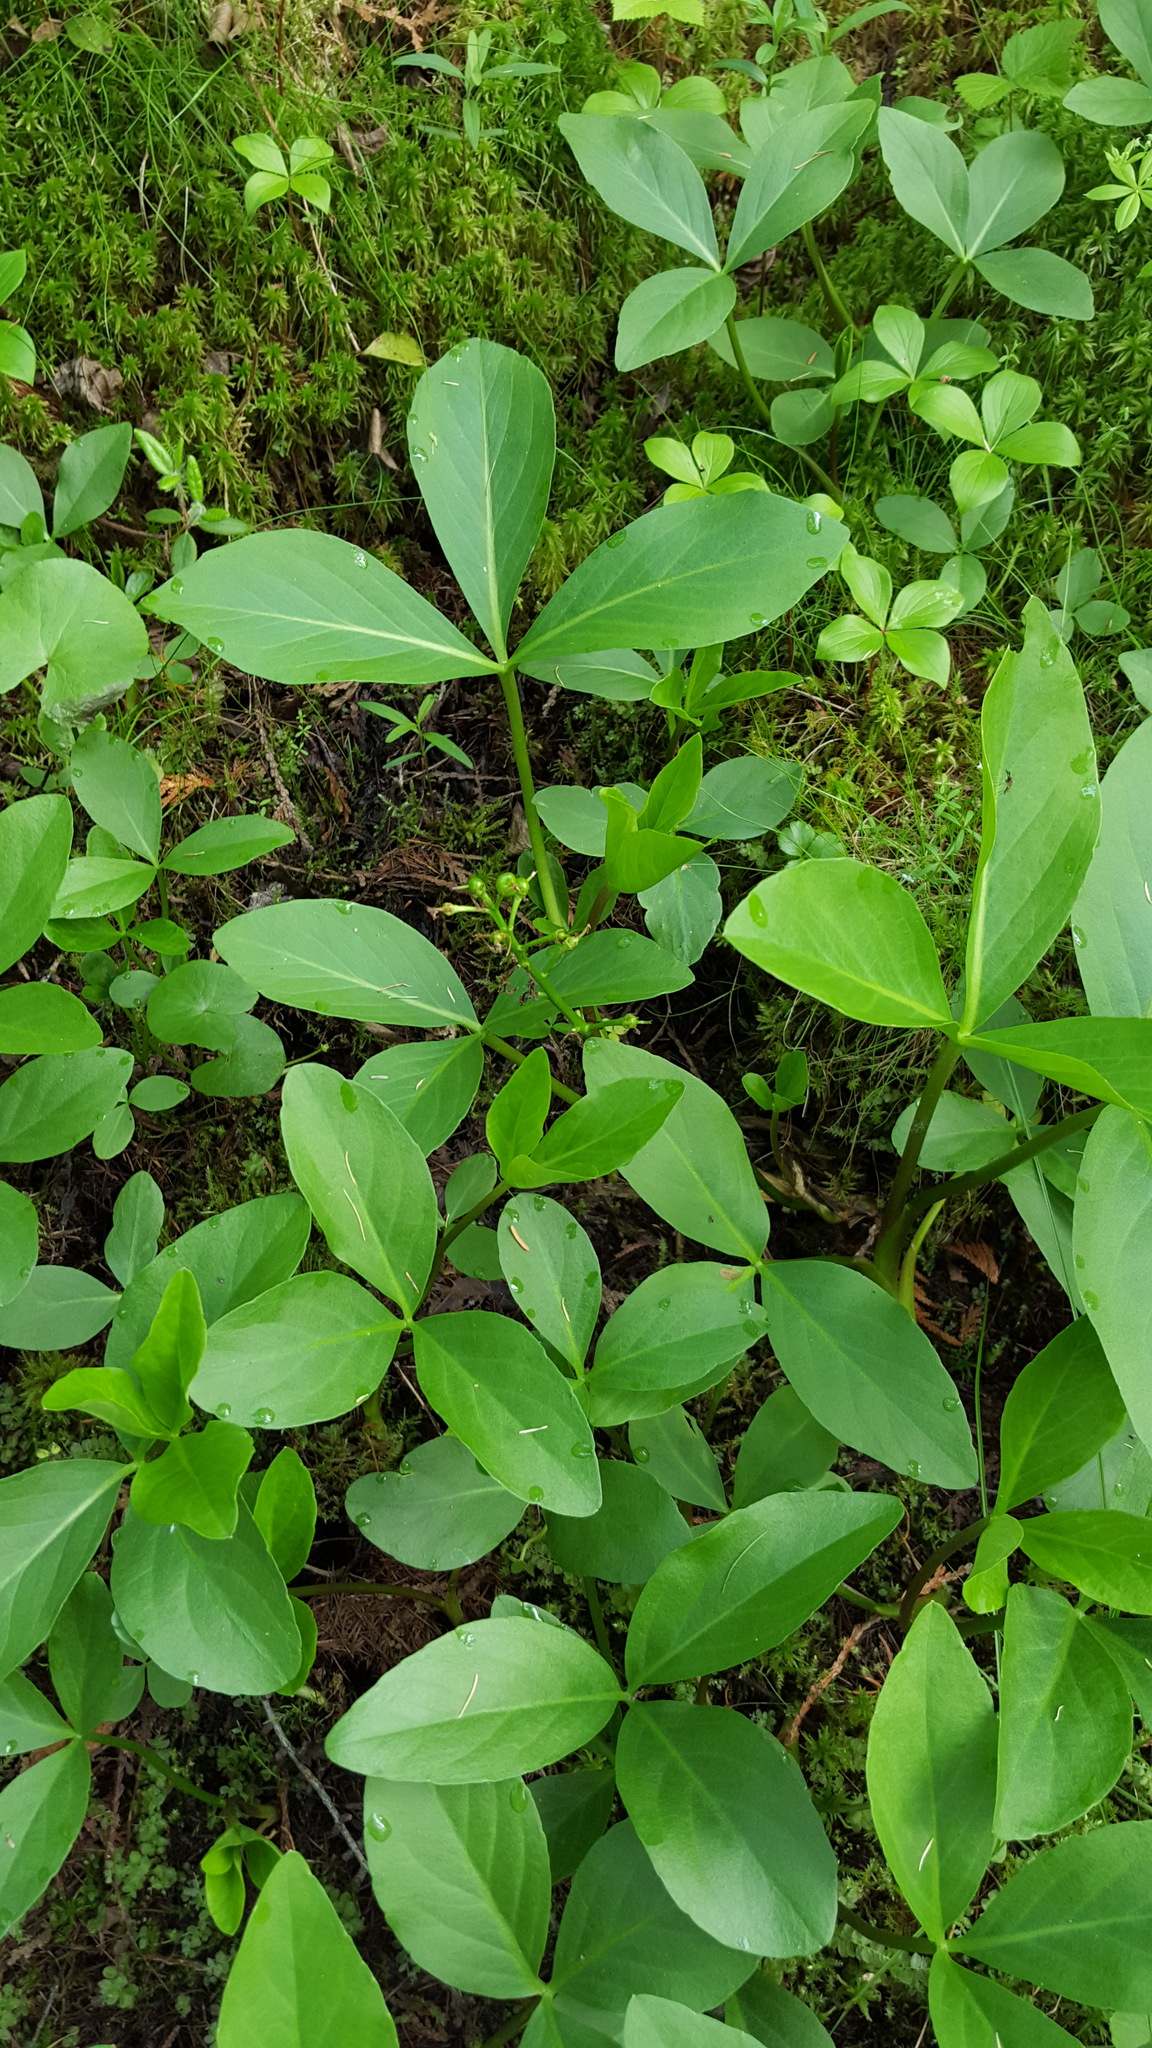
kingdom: Plantae
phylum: Tracheophyta
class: Magnoliopsida
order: Asterales
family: Menyanthaceae
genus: Menyanthes
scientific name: Menyanthes trifoliata
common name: Bogbean
